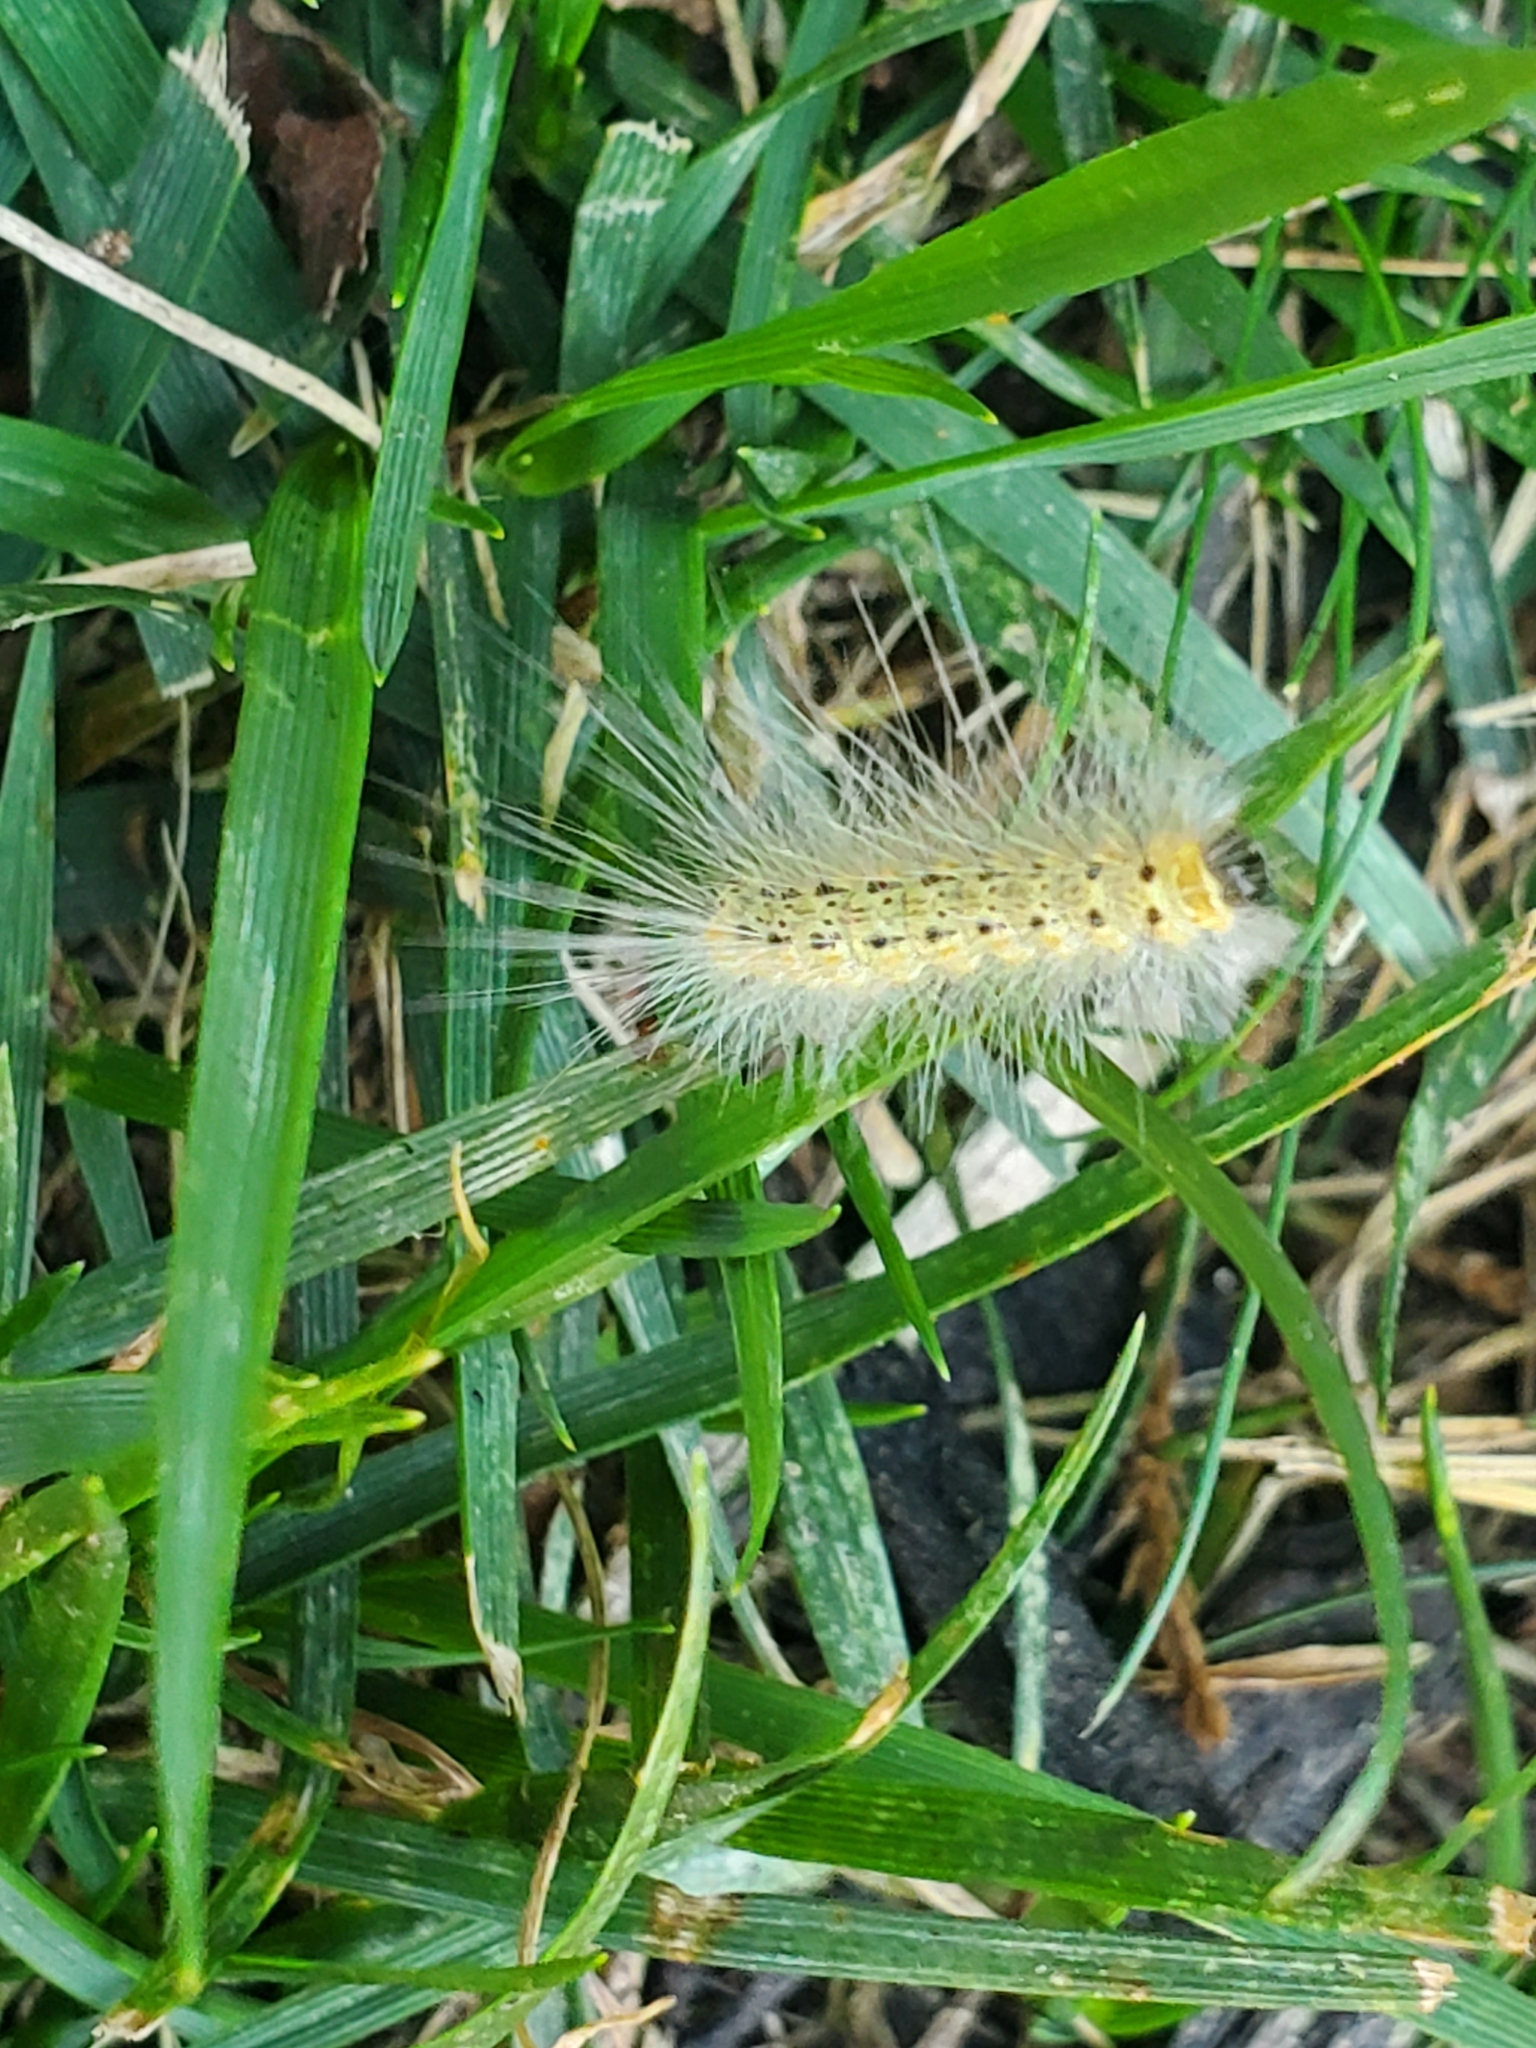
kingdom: Animalia
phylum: Arthropoda
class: Insecta
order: Lepidoptera
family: Erebidae
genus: Hyphantria
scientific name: Hyphantria cunea
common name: American white moth
